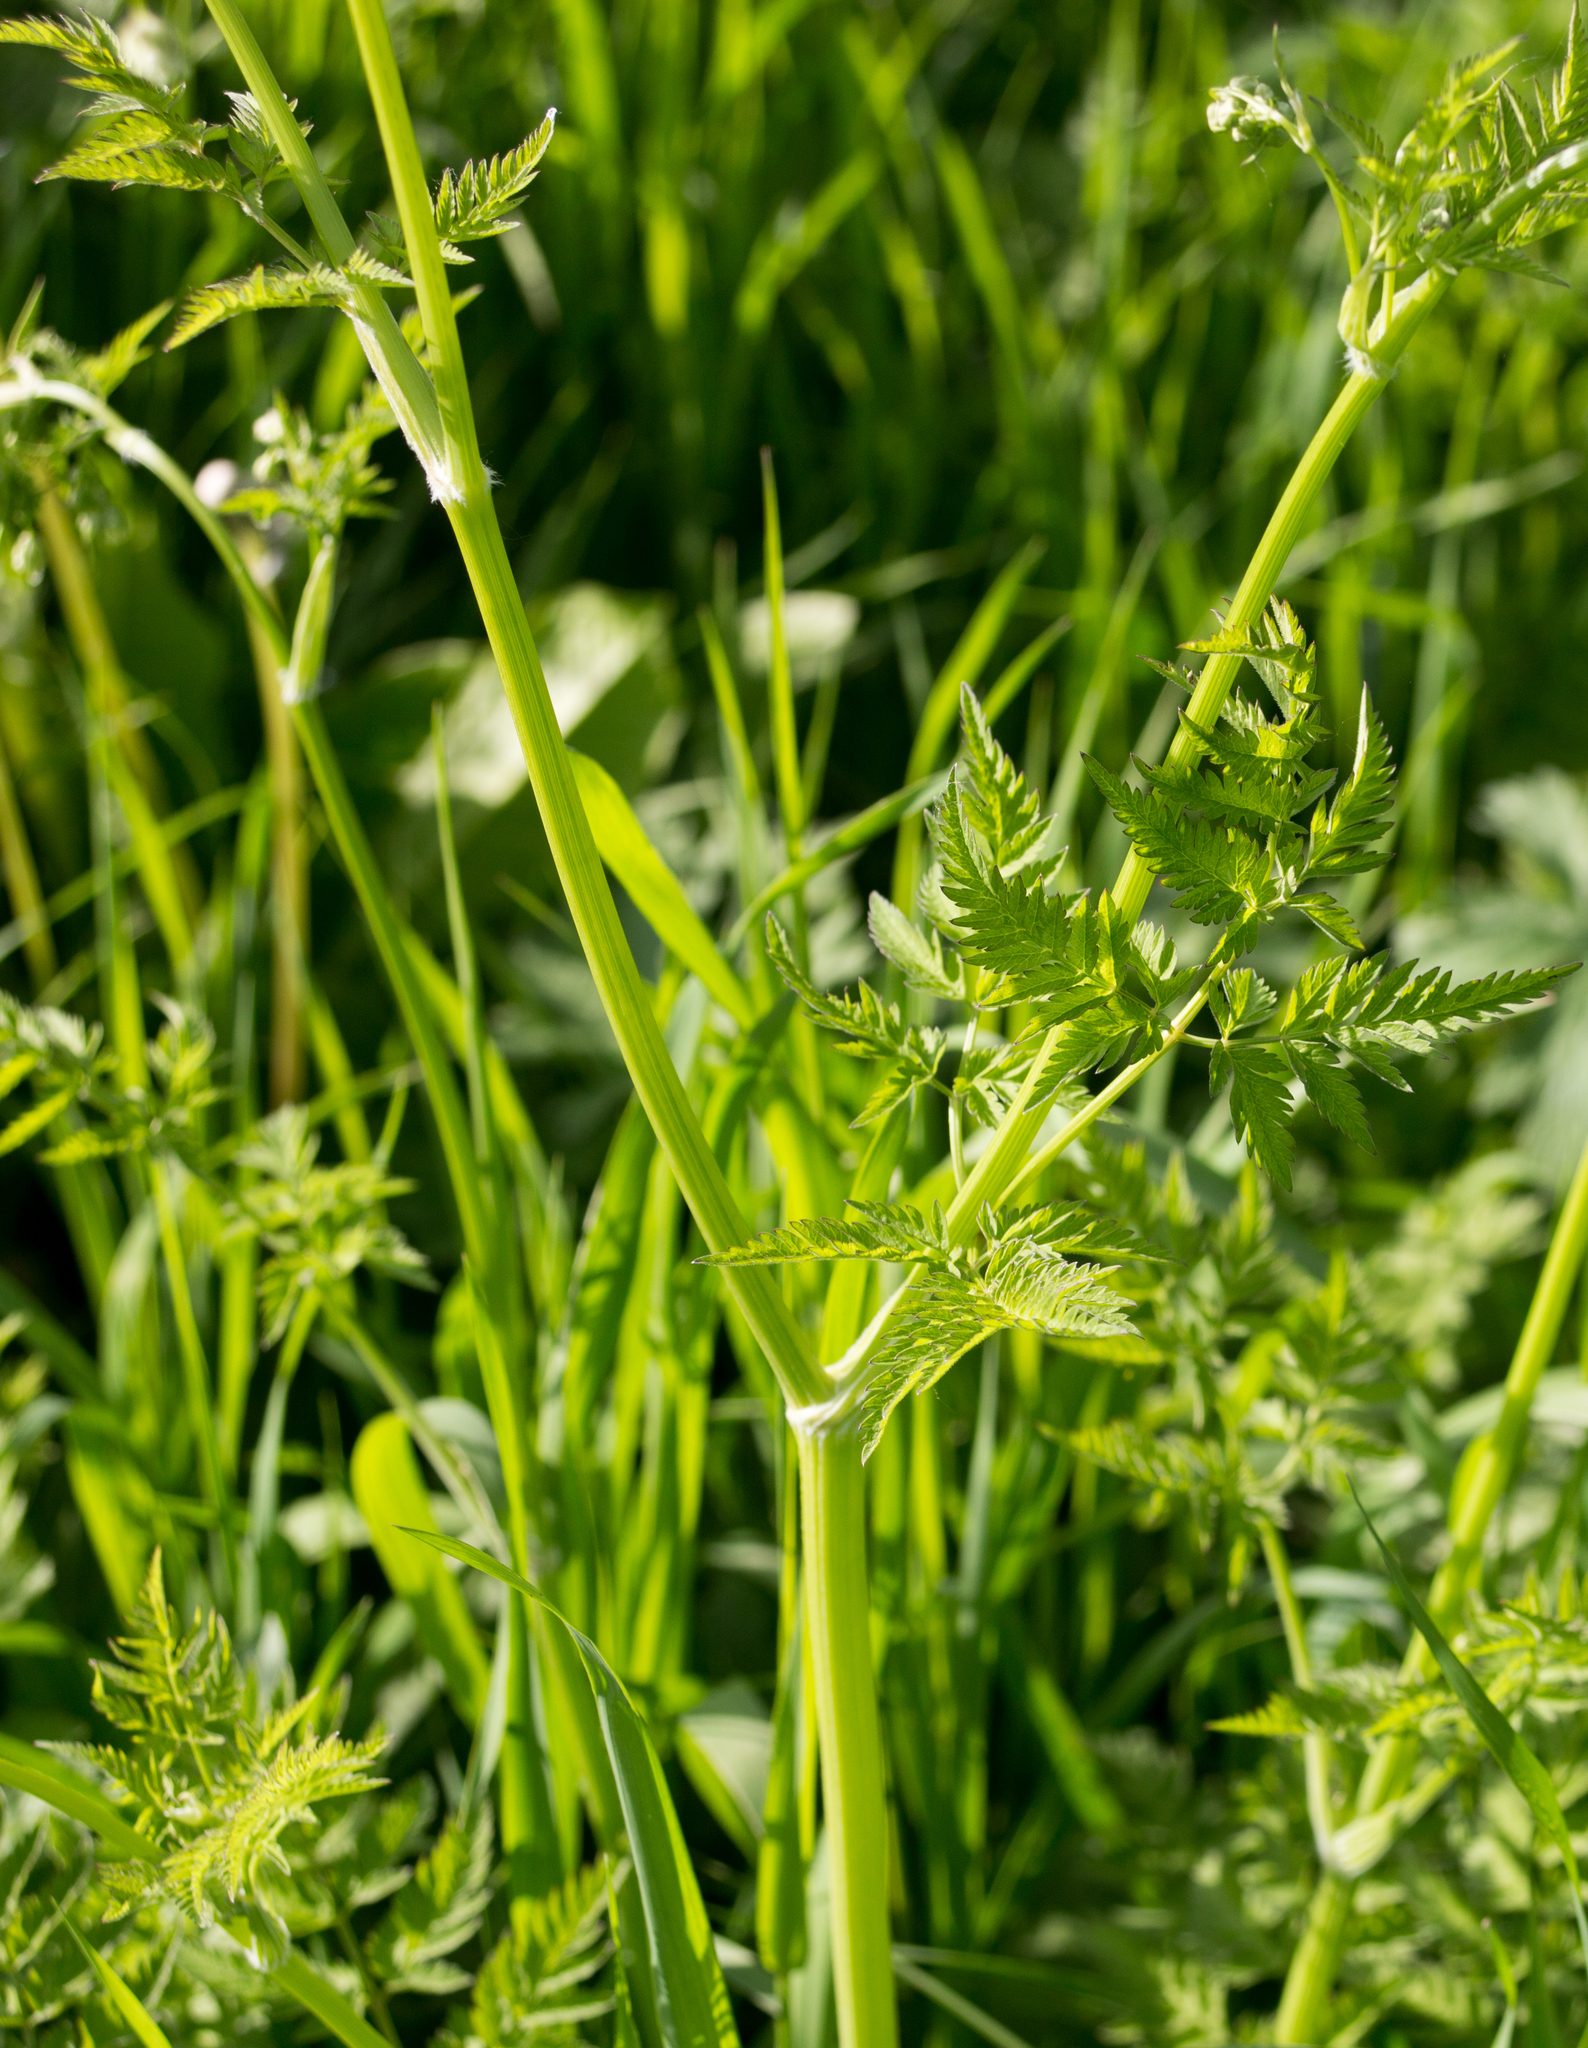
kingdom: Plantae
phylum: Tracheophyta
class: Magnoliopsida
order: Apiales
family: Apiaceae
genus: Anthriscus
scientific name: Anthriscus sylvestris
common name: Cow parsley
